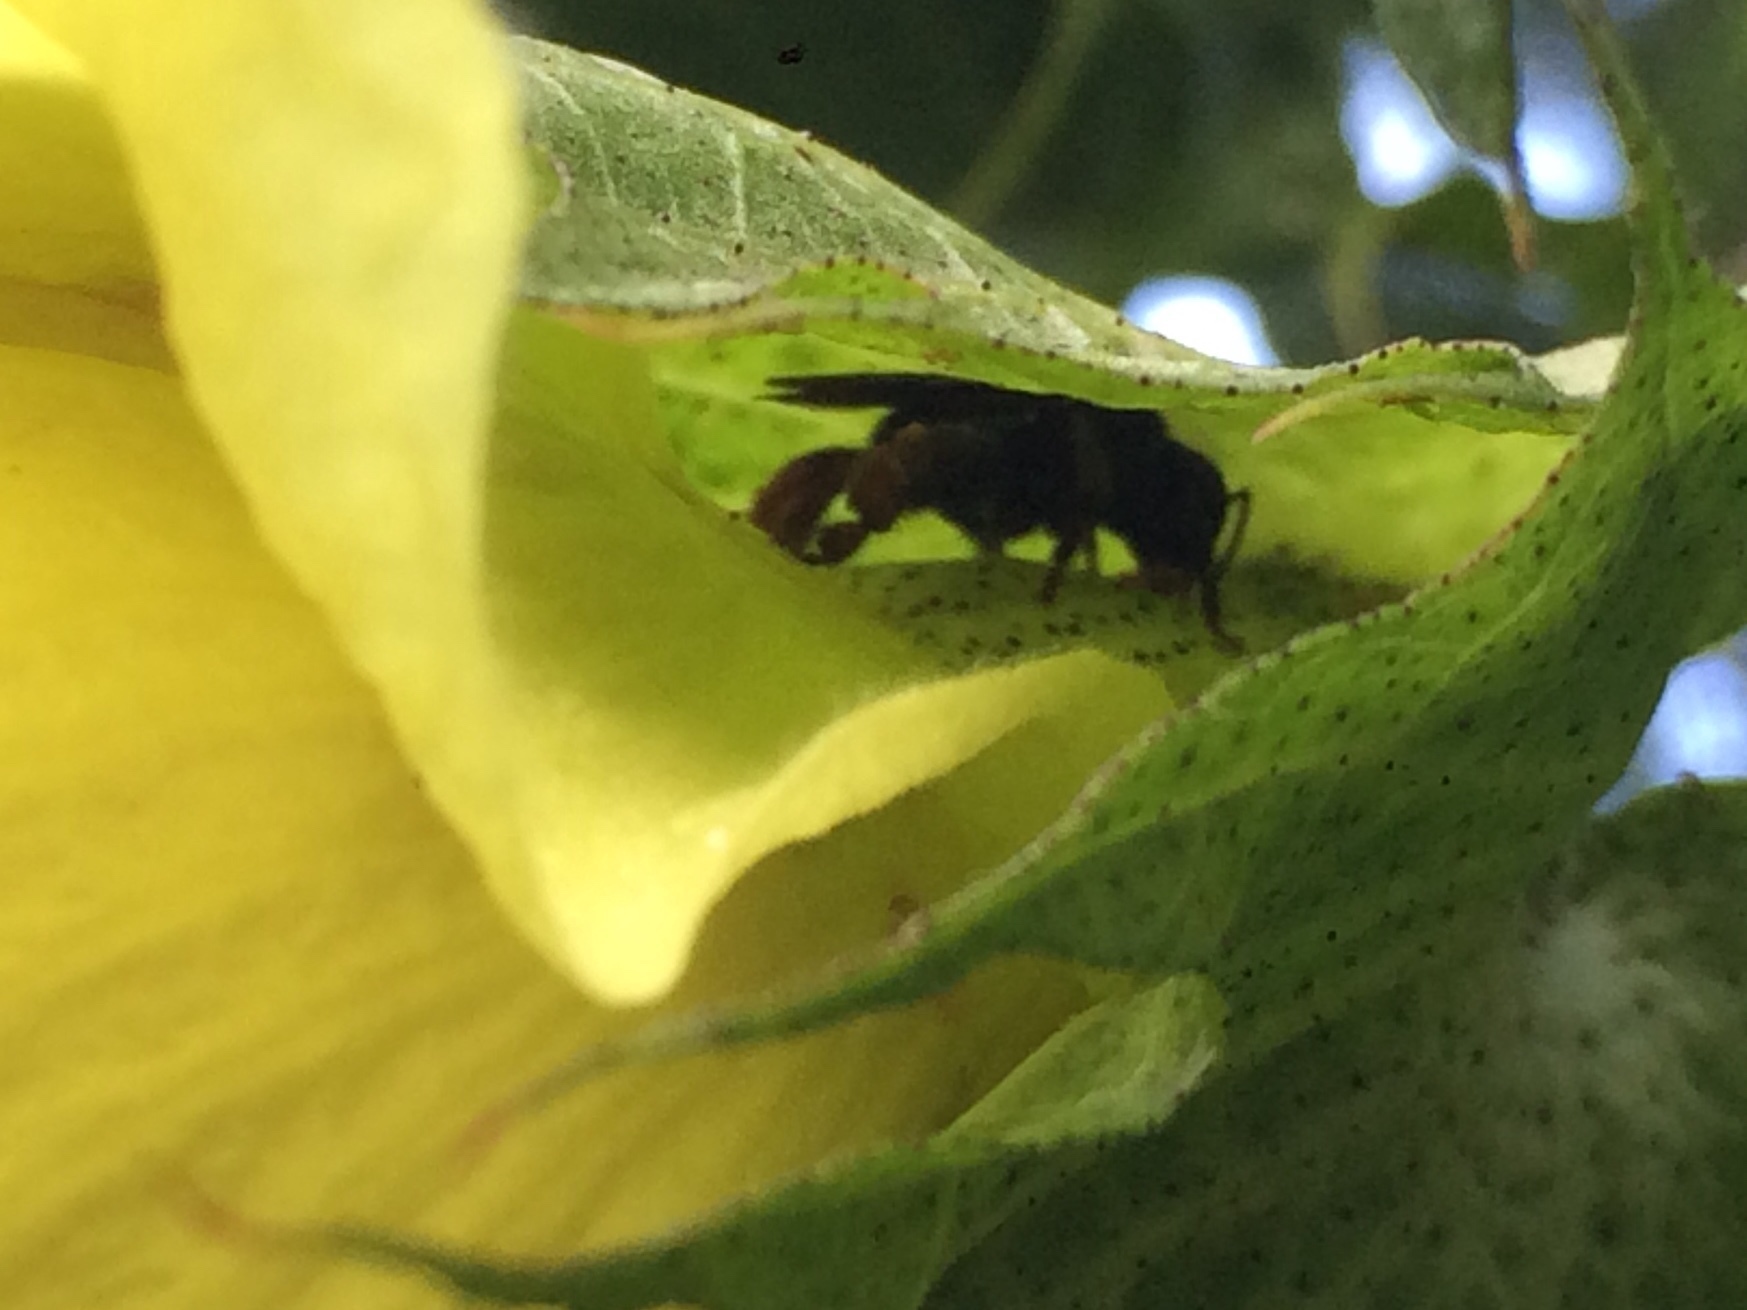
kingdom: Animalia
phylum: Arthropoda
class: Insecta
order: Hymenoptera
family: Apidae
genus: Trigona
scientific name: Trigona spinipes
